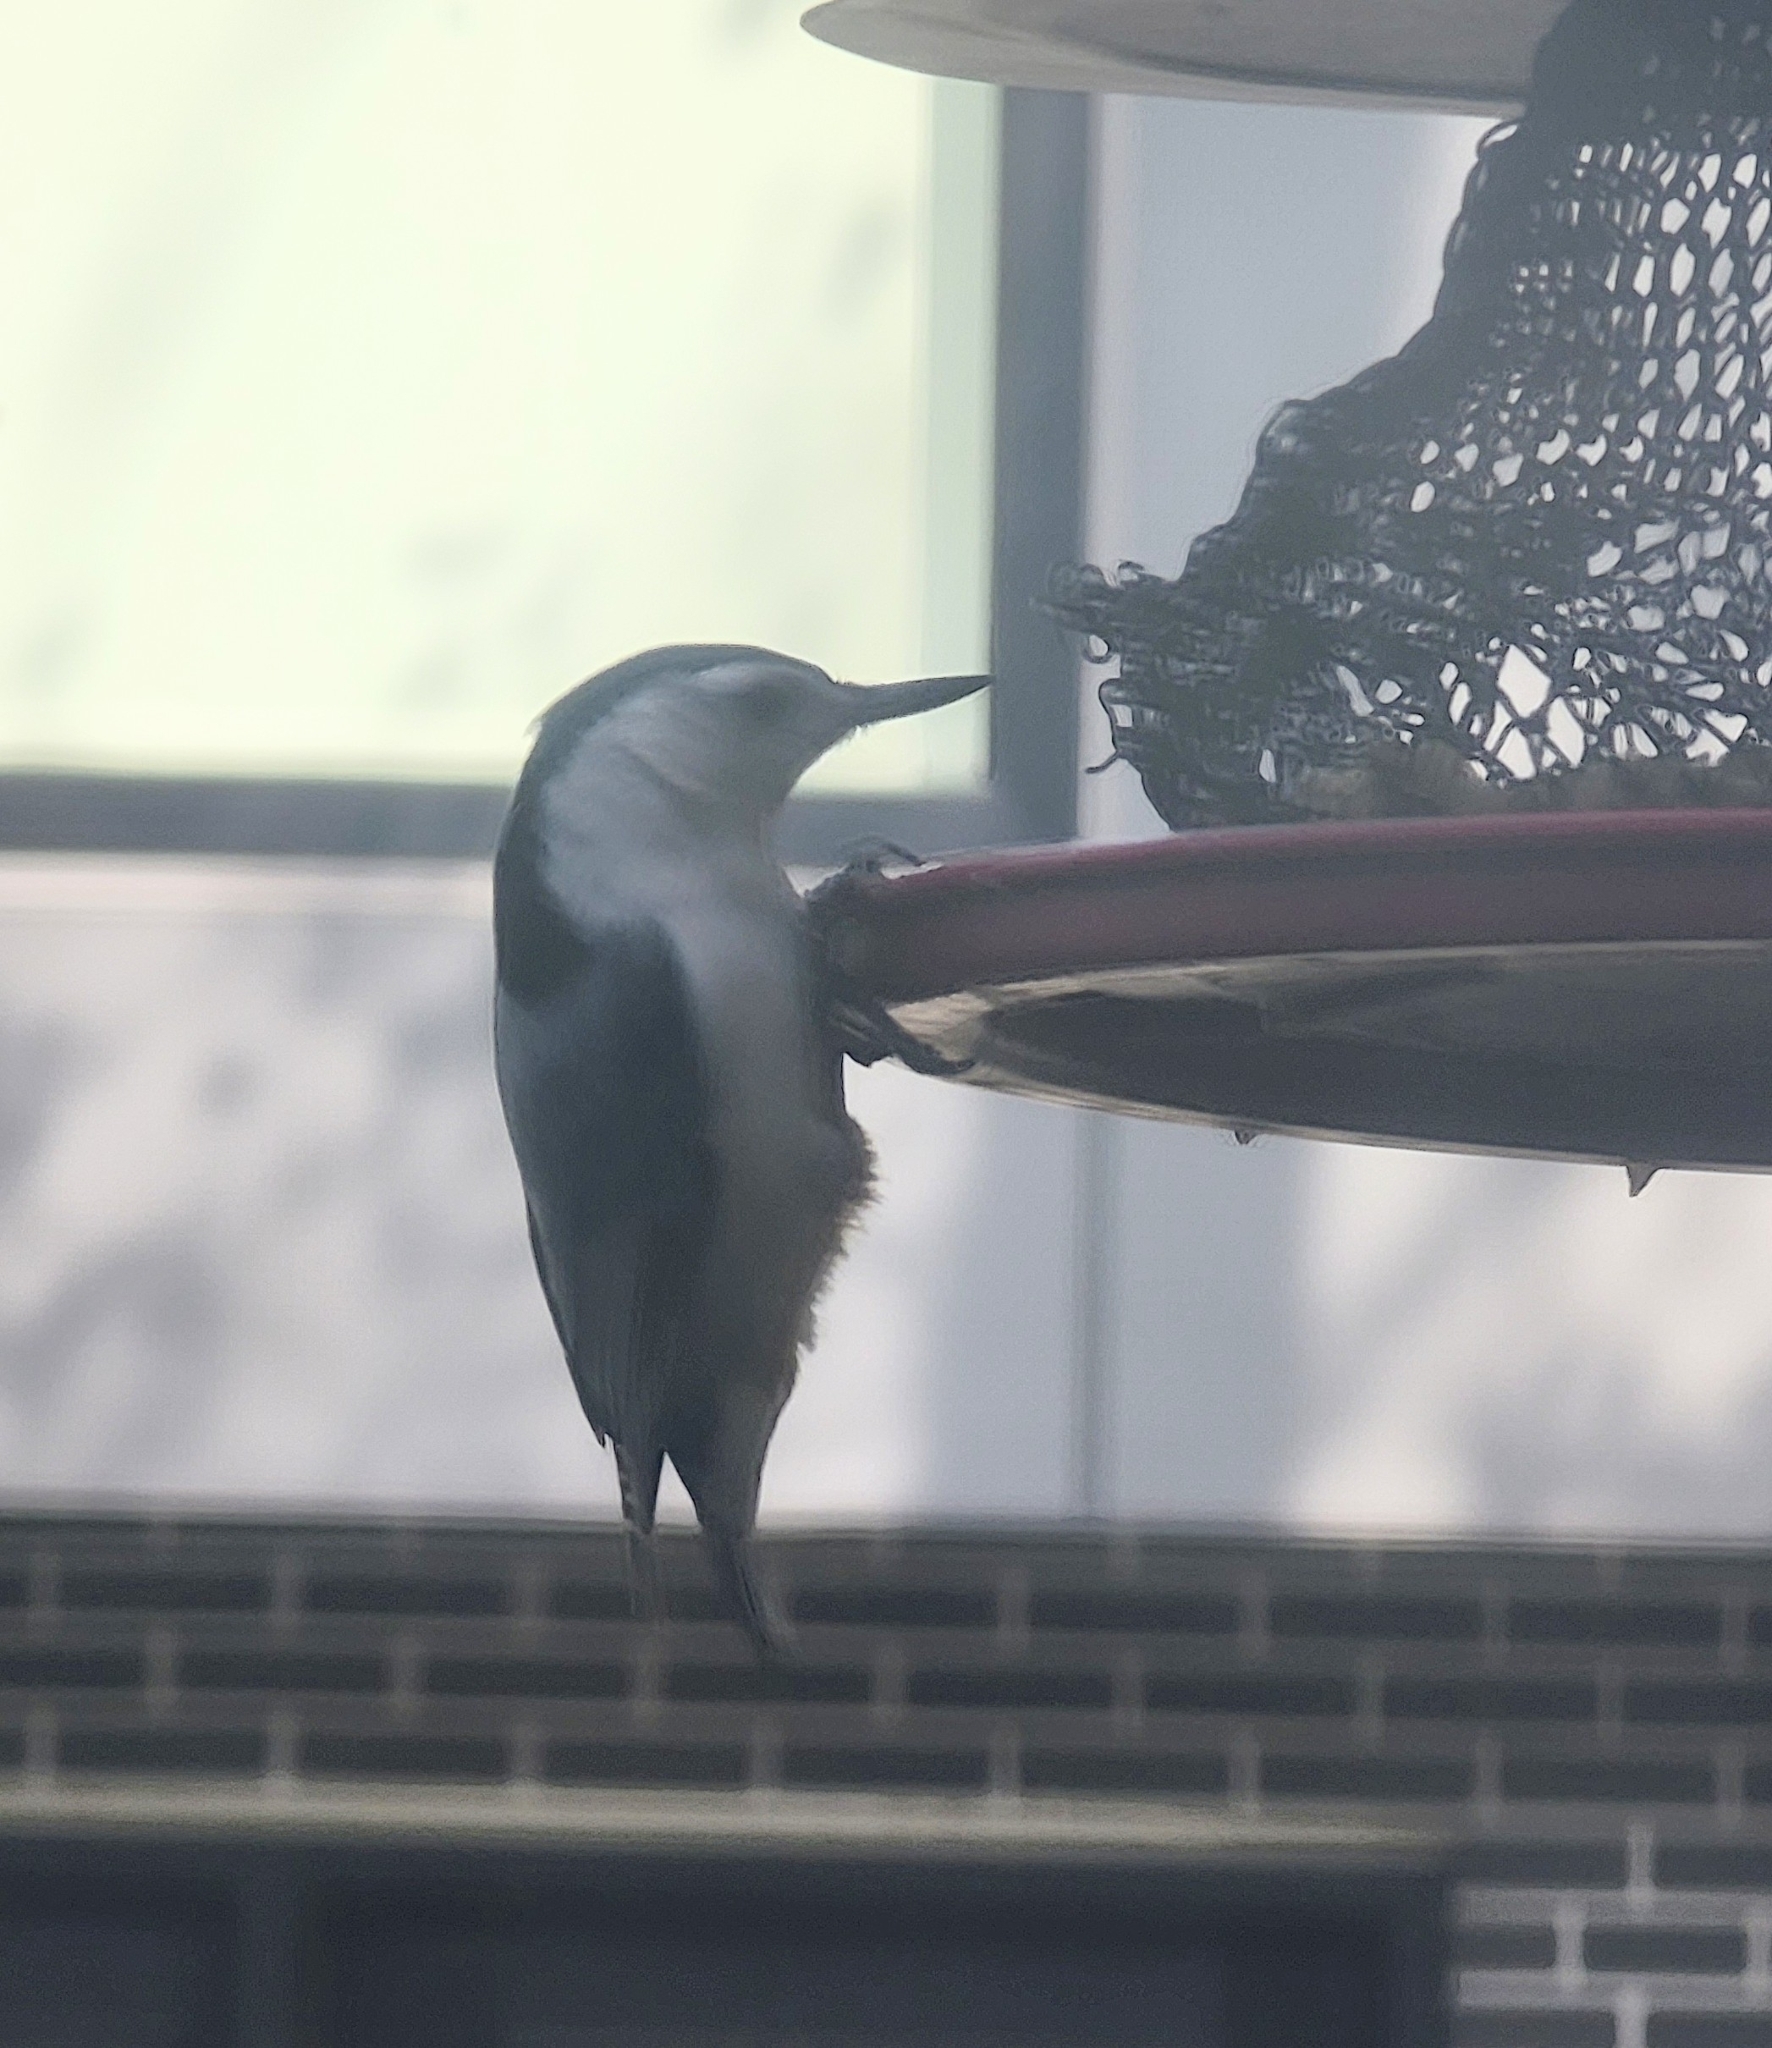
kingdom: Animalia
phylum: Chordata
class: Aves
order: Passeriformes
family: Sittidae
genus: Sitta
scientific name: Sitta carolinensis
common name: White-breasted nuthatch
